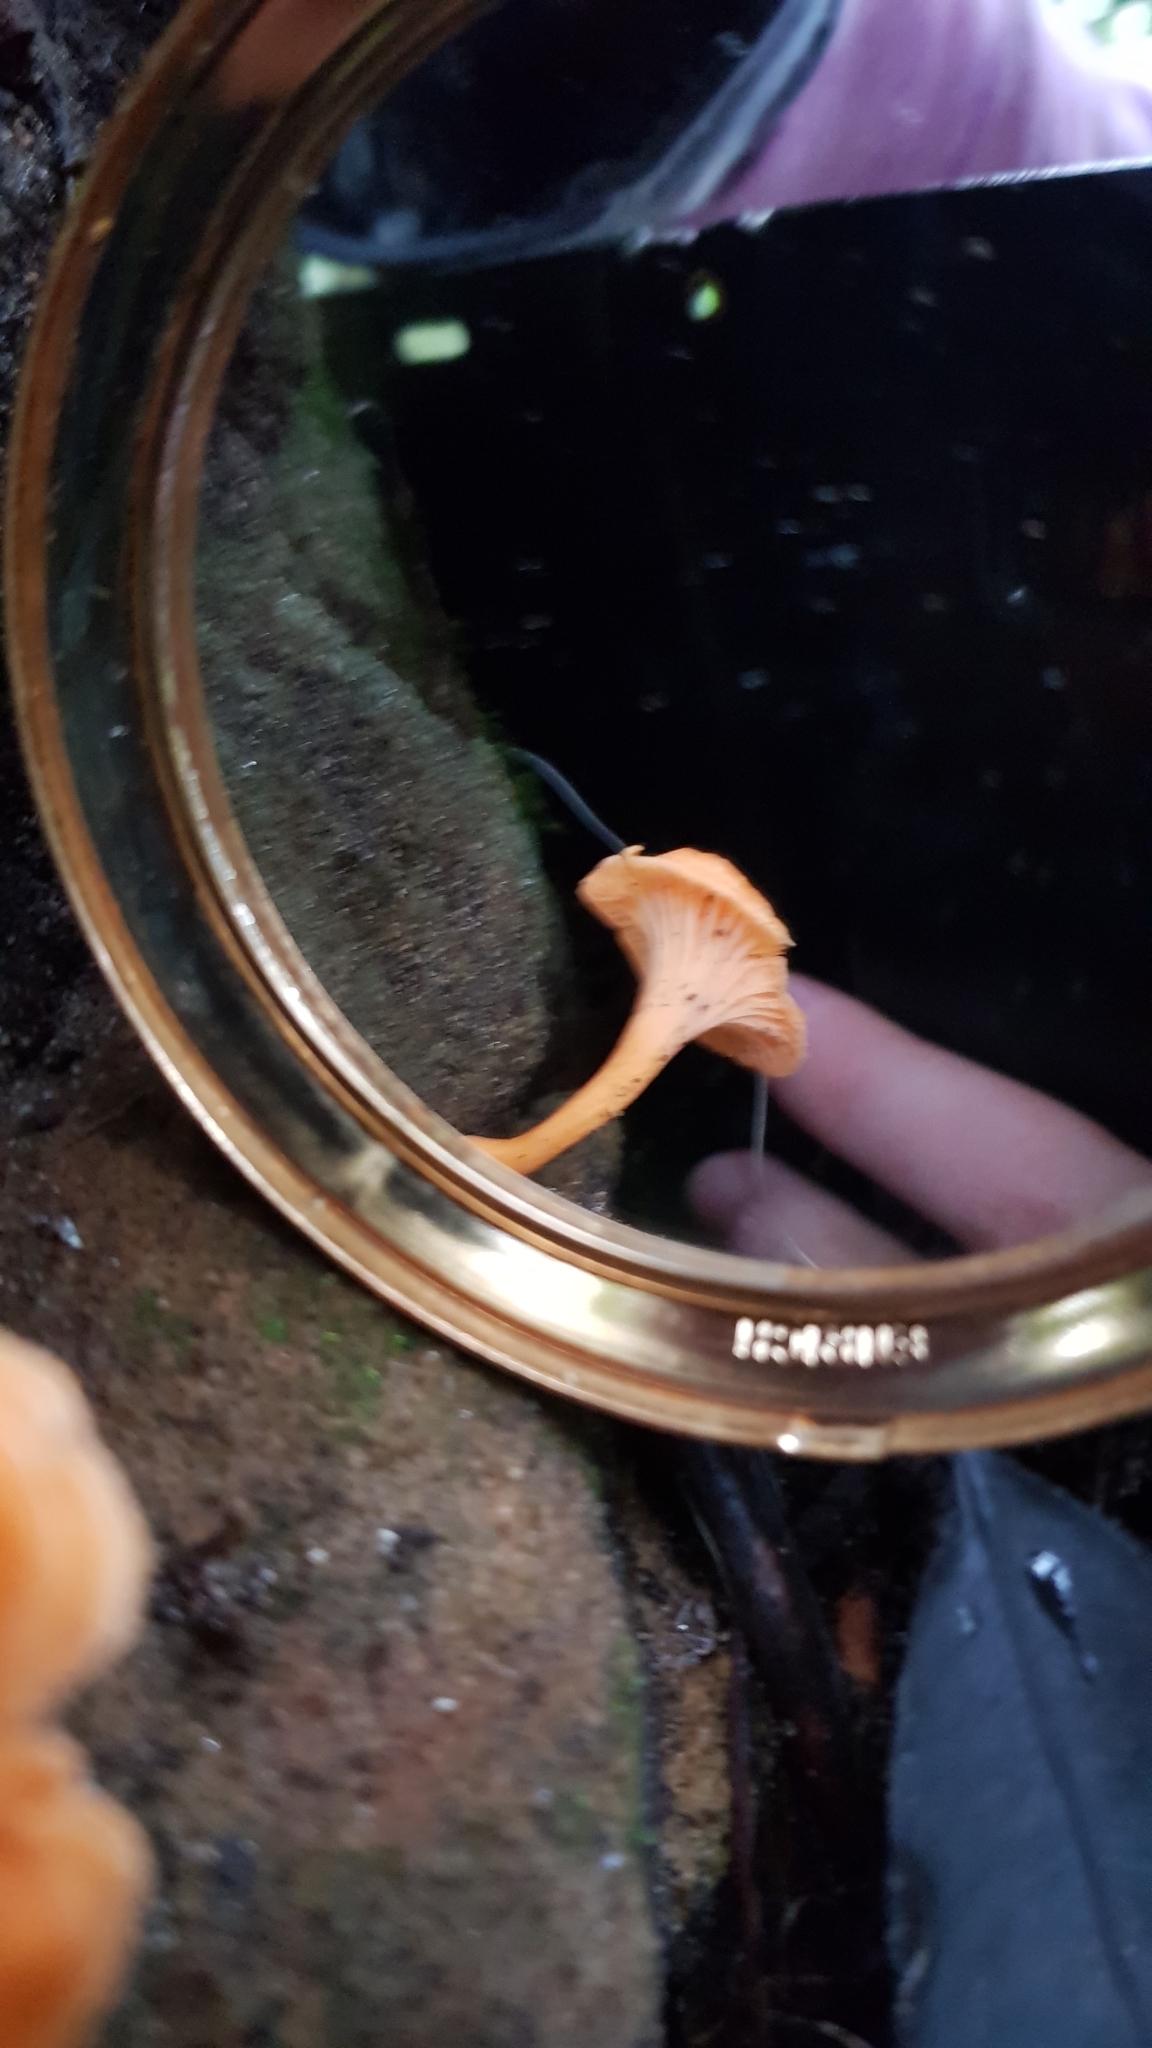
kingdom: Fungi
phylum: Basidiomycota
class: Agaricomycetes
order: Cantharellales
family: Hydnaceae
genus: Cantharellus
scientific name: Cantharellus
